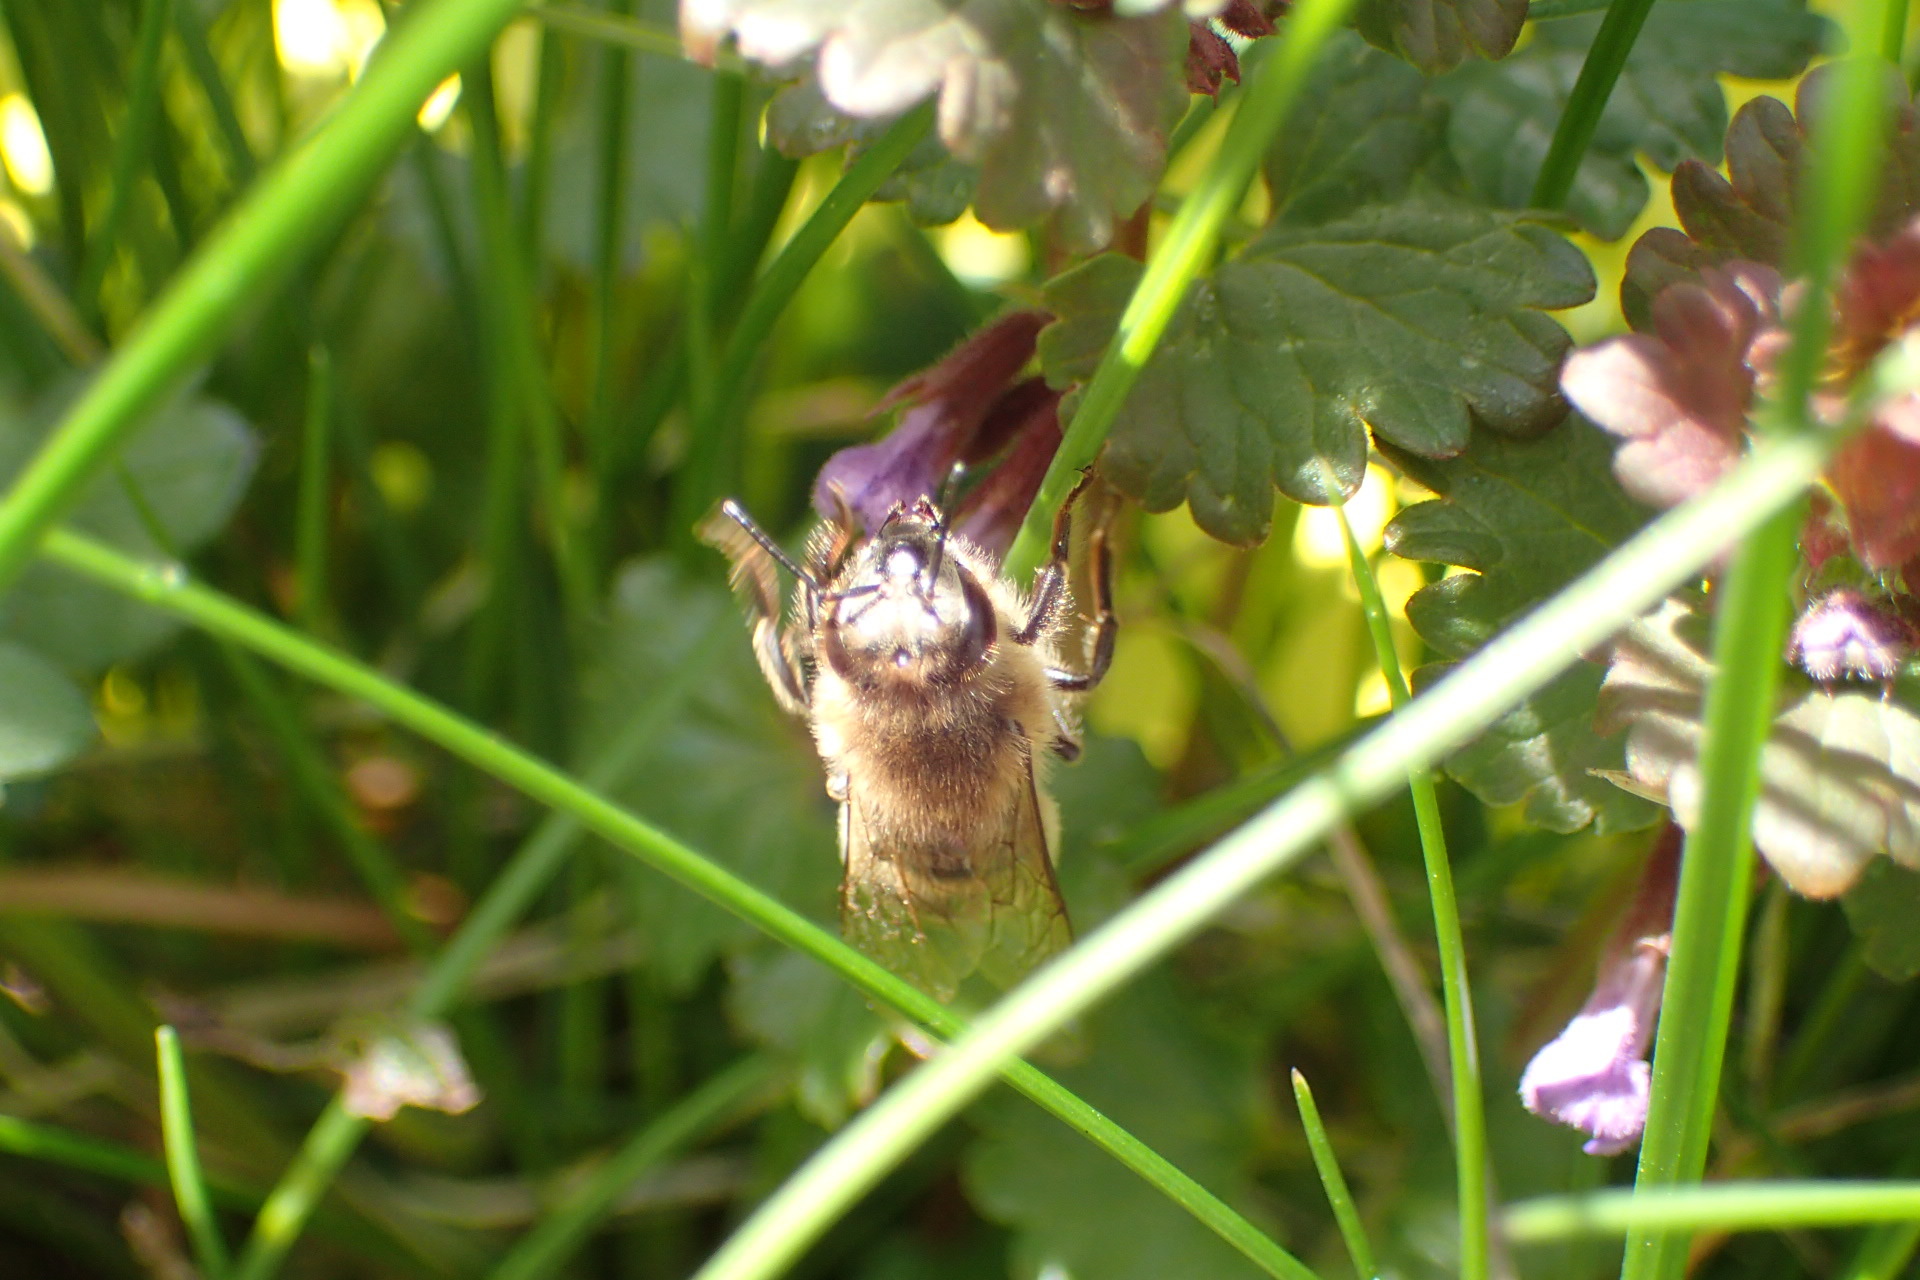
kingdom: Animalia
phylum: Arthropoda
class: Insecta
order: Hymenoptera
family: Apidae
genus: Apis
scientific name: Apis mellifera
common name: Honey bee
